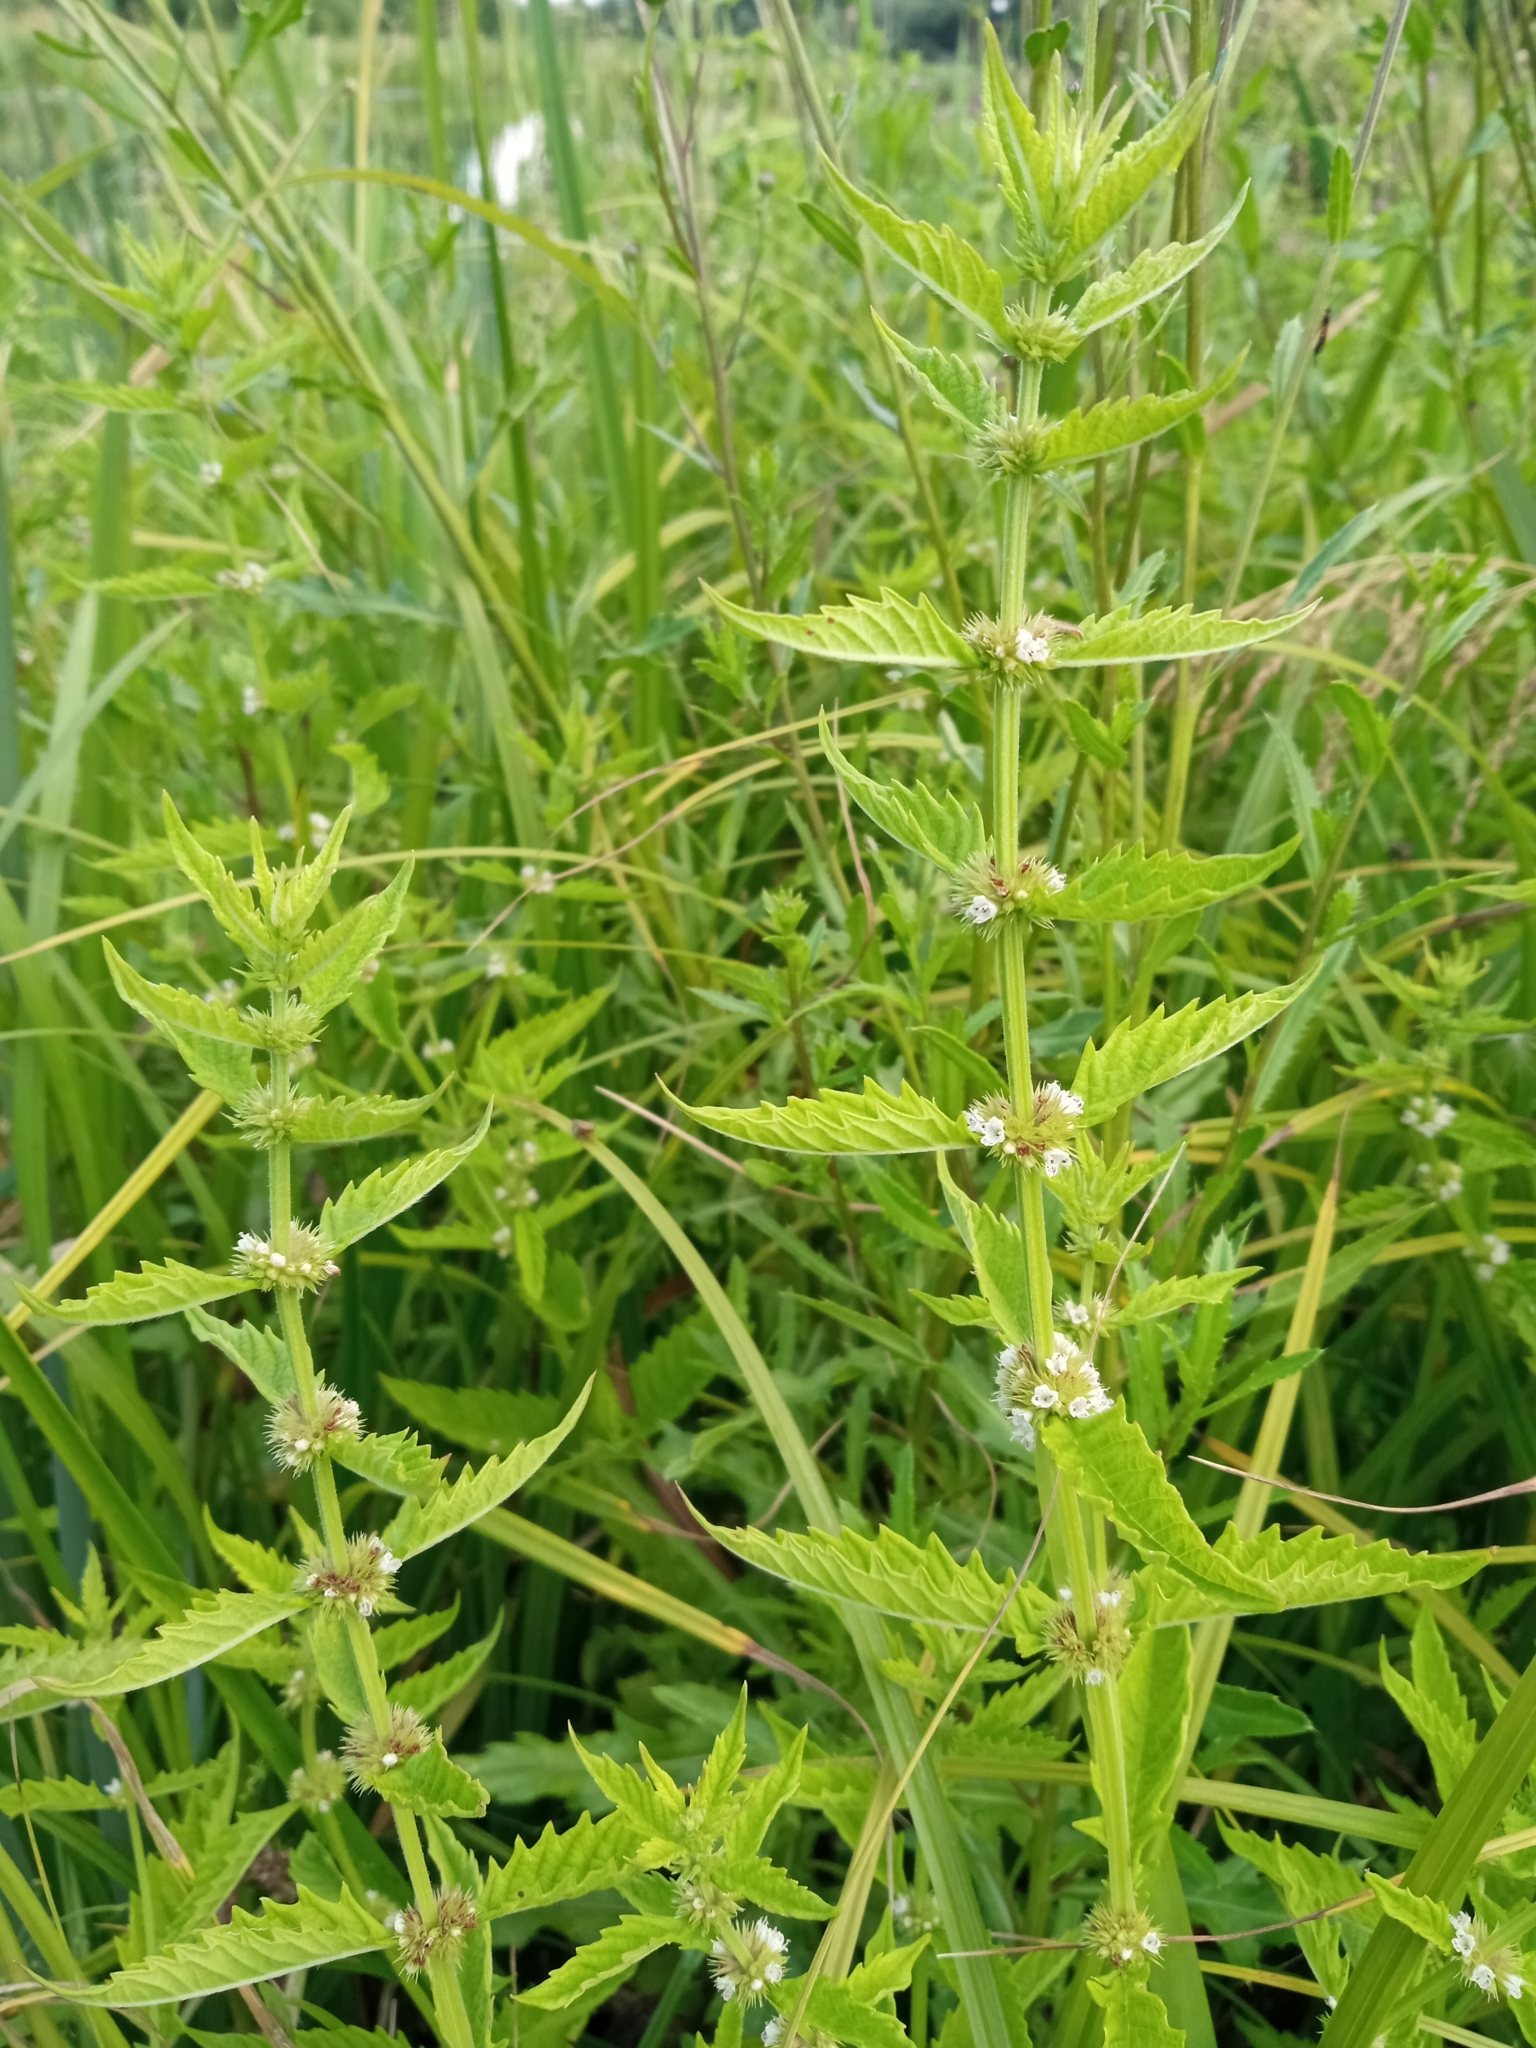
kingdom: Plantae
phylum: Tracheophyta
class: Magnoliopsida
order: Lamiales
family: Lamiaceae
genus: Lycopus
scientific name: Lycopus europaeus
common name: European bugleweed
